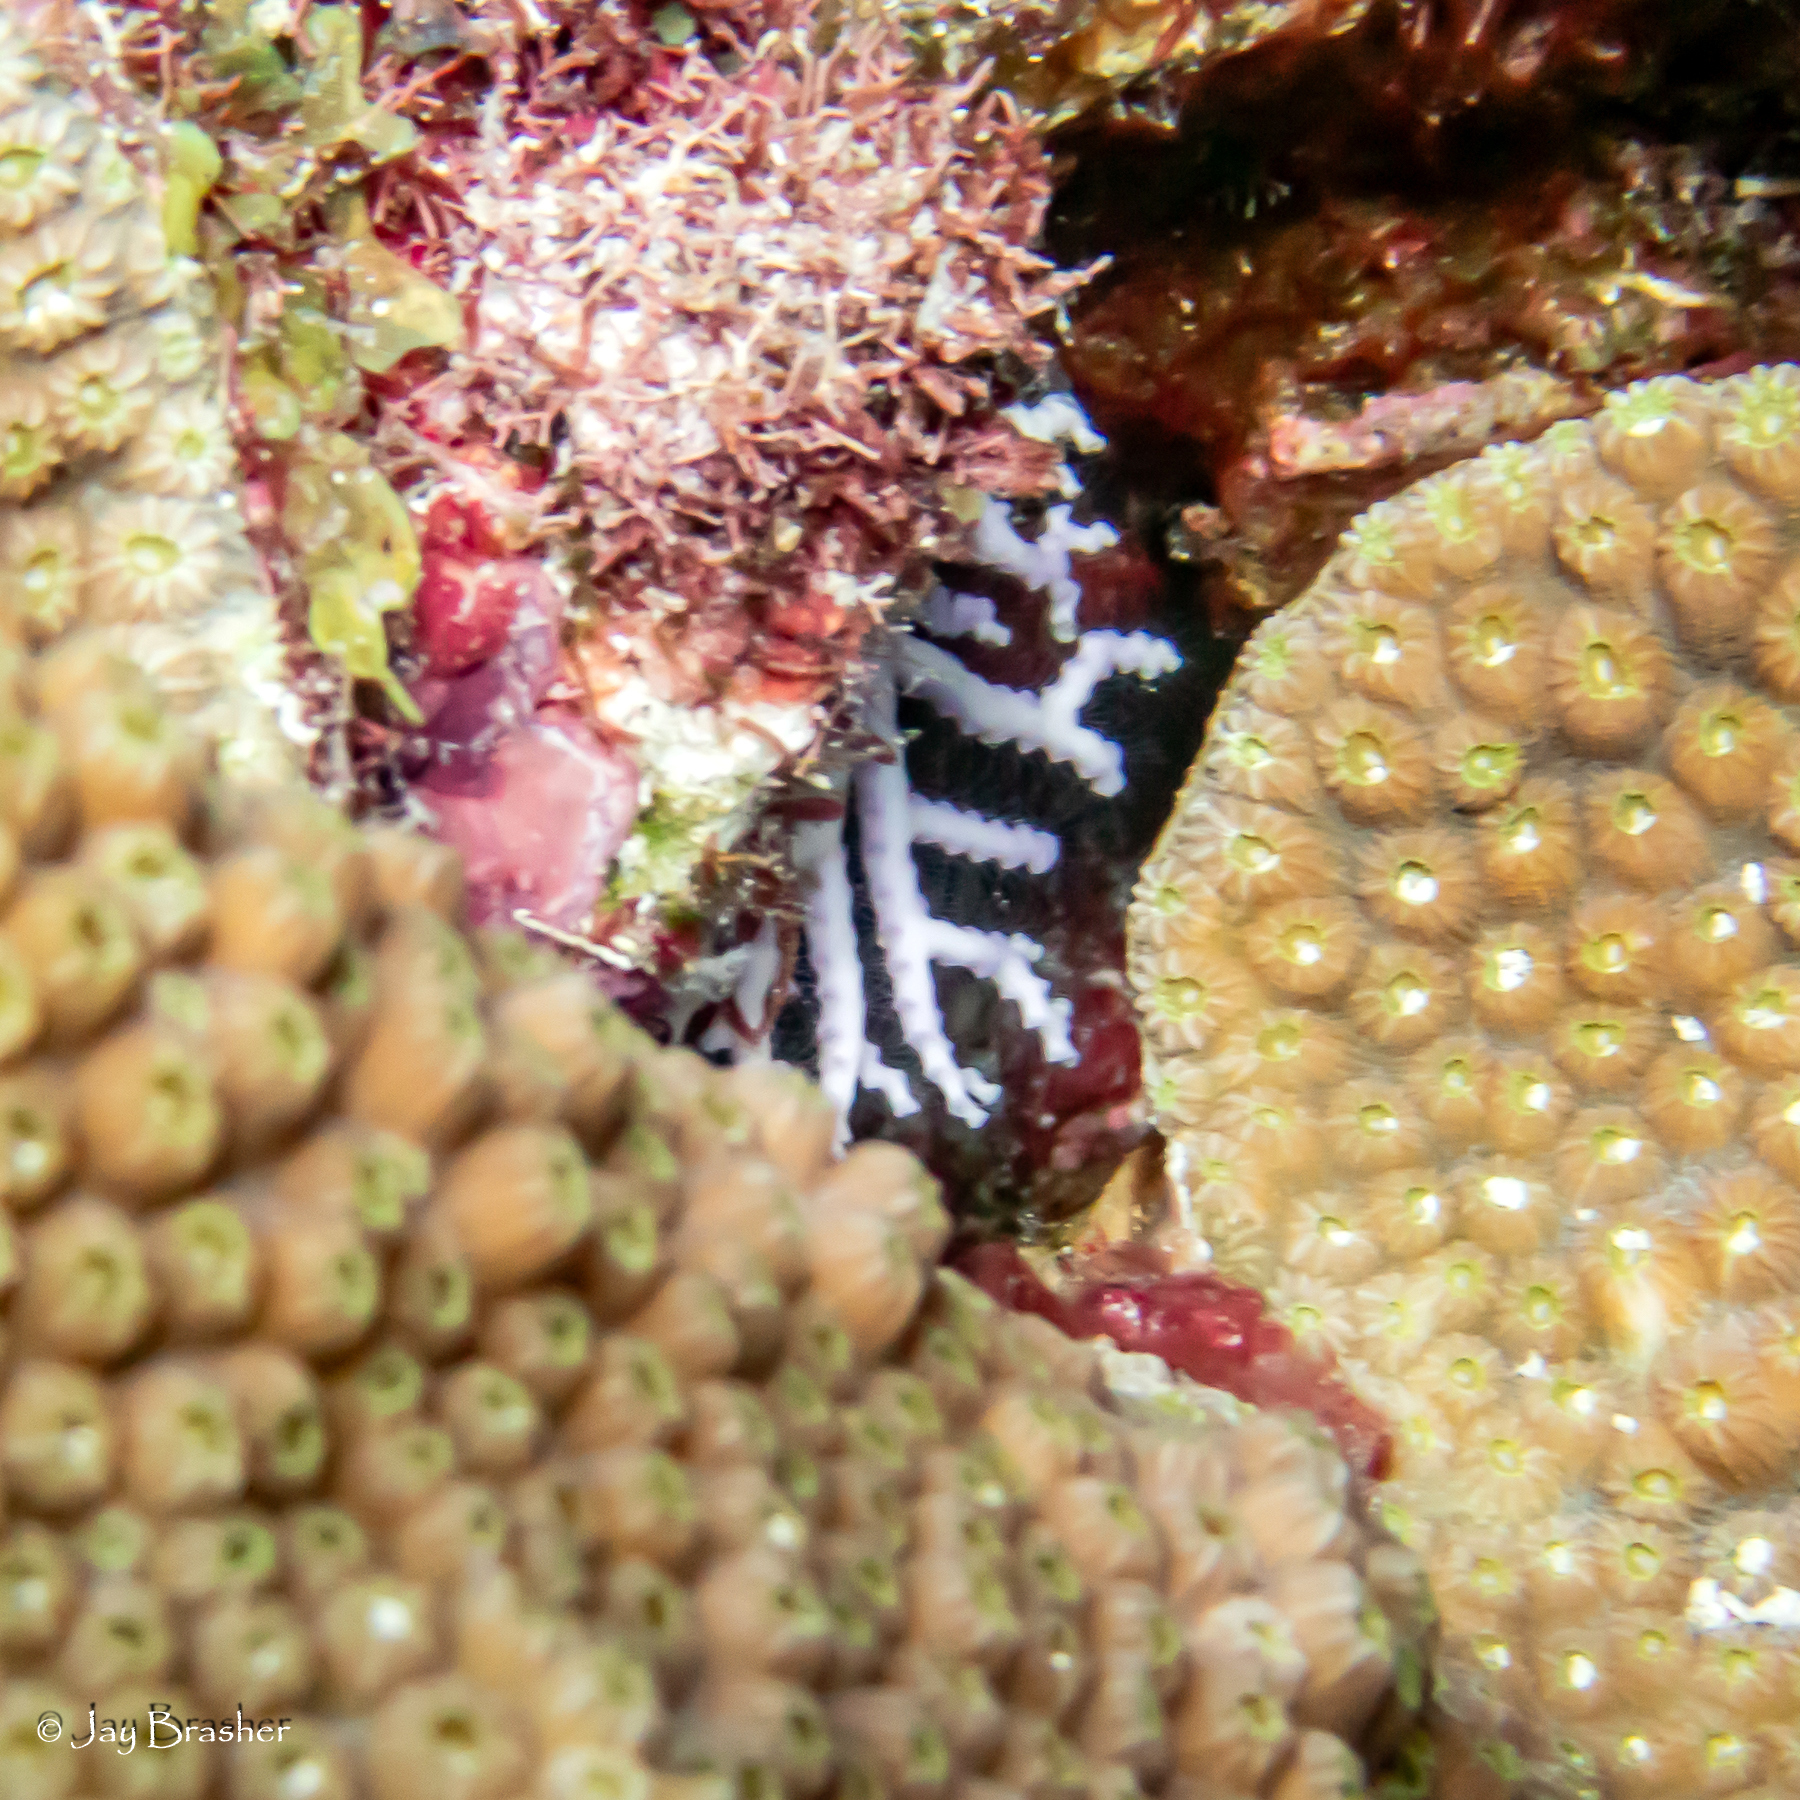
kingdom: Animalia
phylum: Cnidaria
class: Hydrozoa
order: Anthoathecata
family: Stylasteridae
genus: Stylaster
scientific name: Stylaster roseus
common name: Rose lace coral
